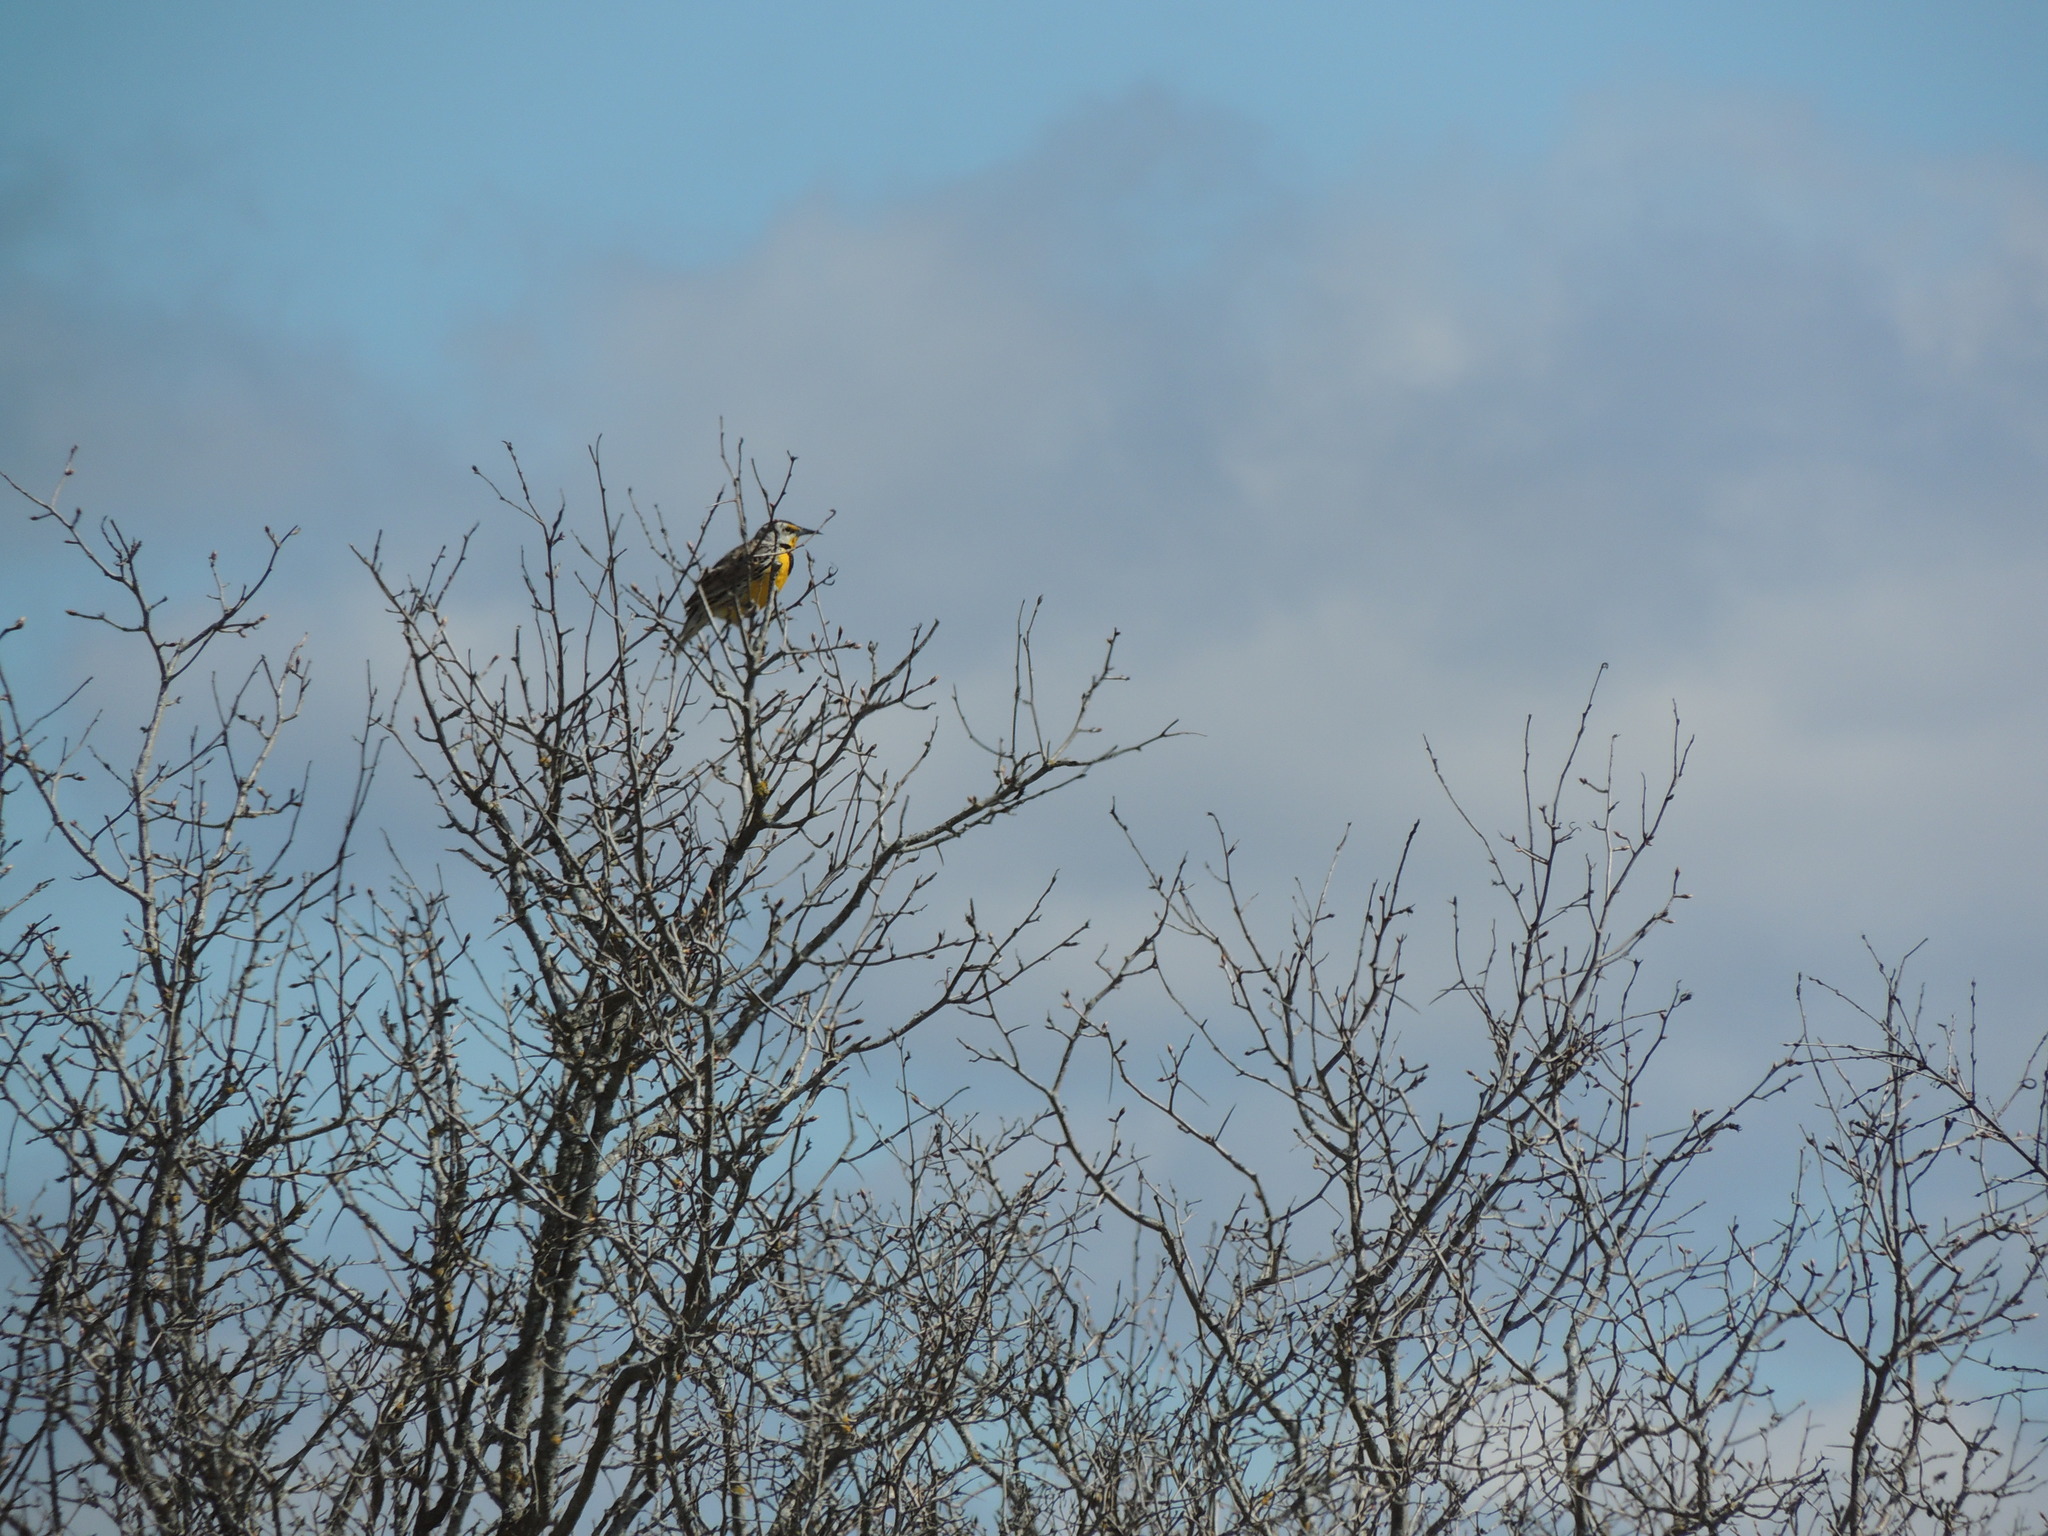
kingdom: Animalia
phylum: Chordata
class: Aves
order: Passeriformes
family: Icteridae
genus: Sturnella
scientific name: Sturnella magna
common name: Eastern meadowlark
